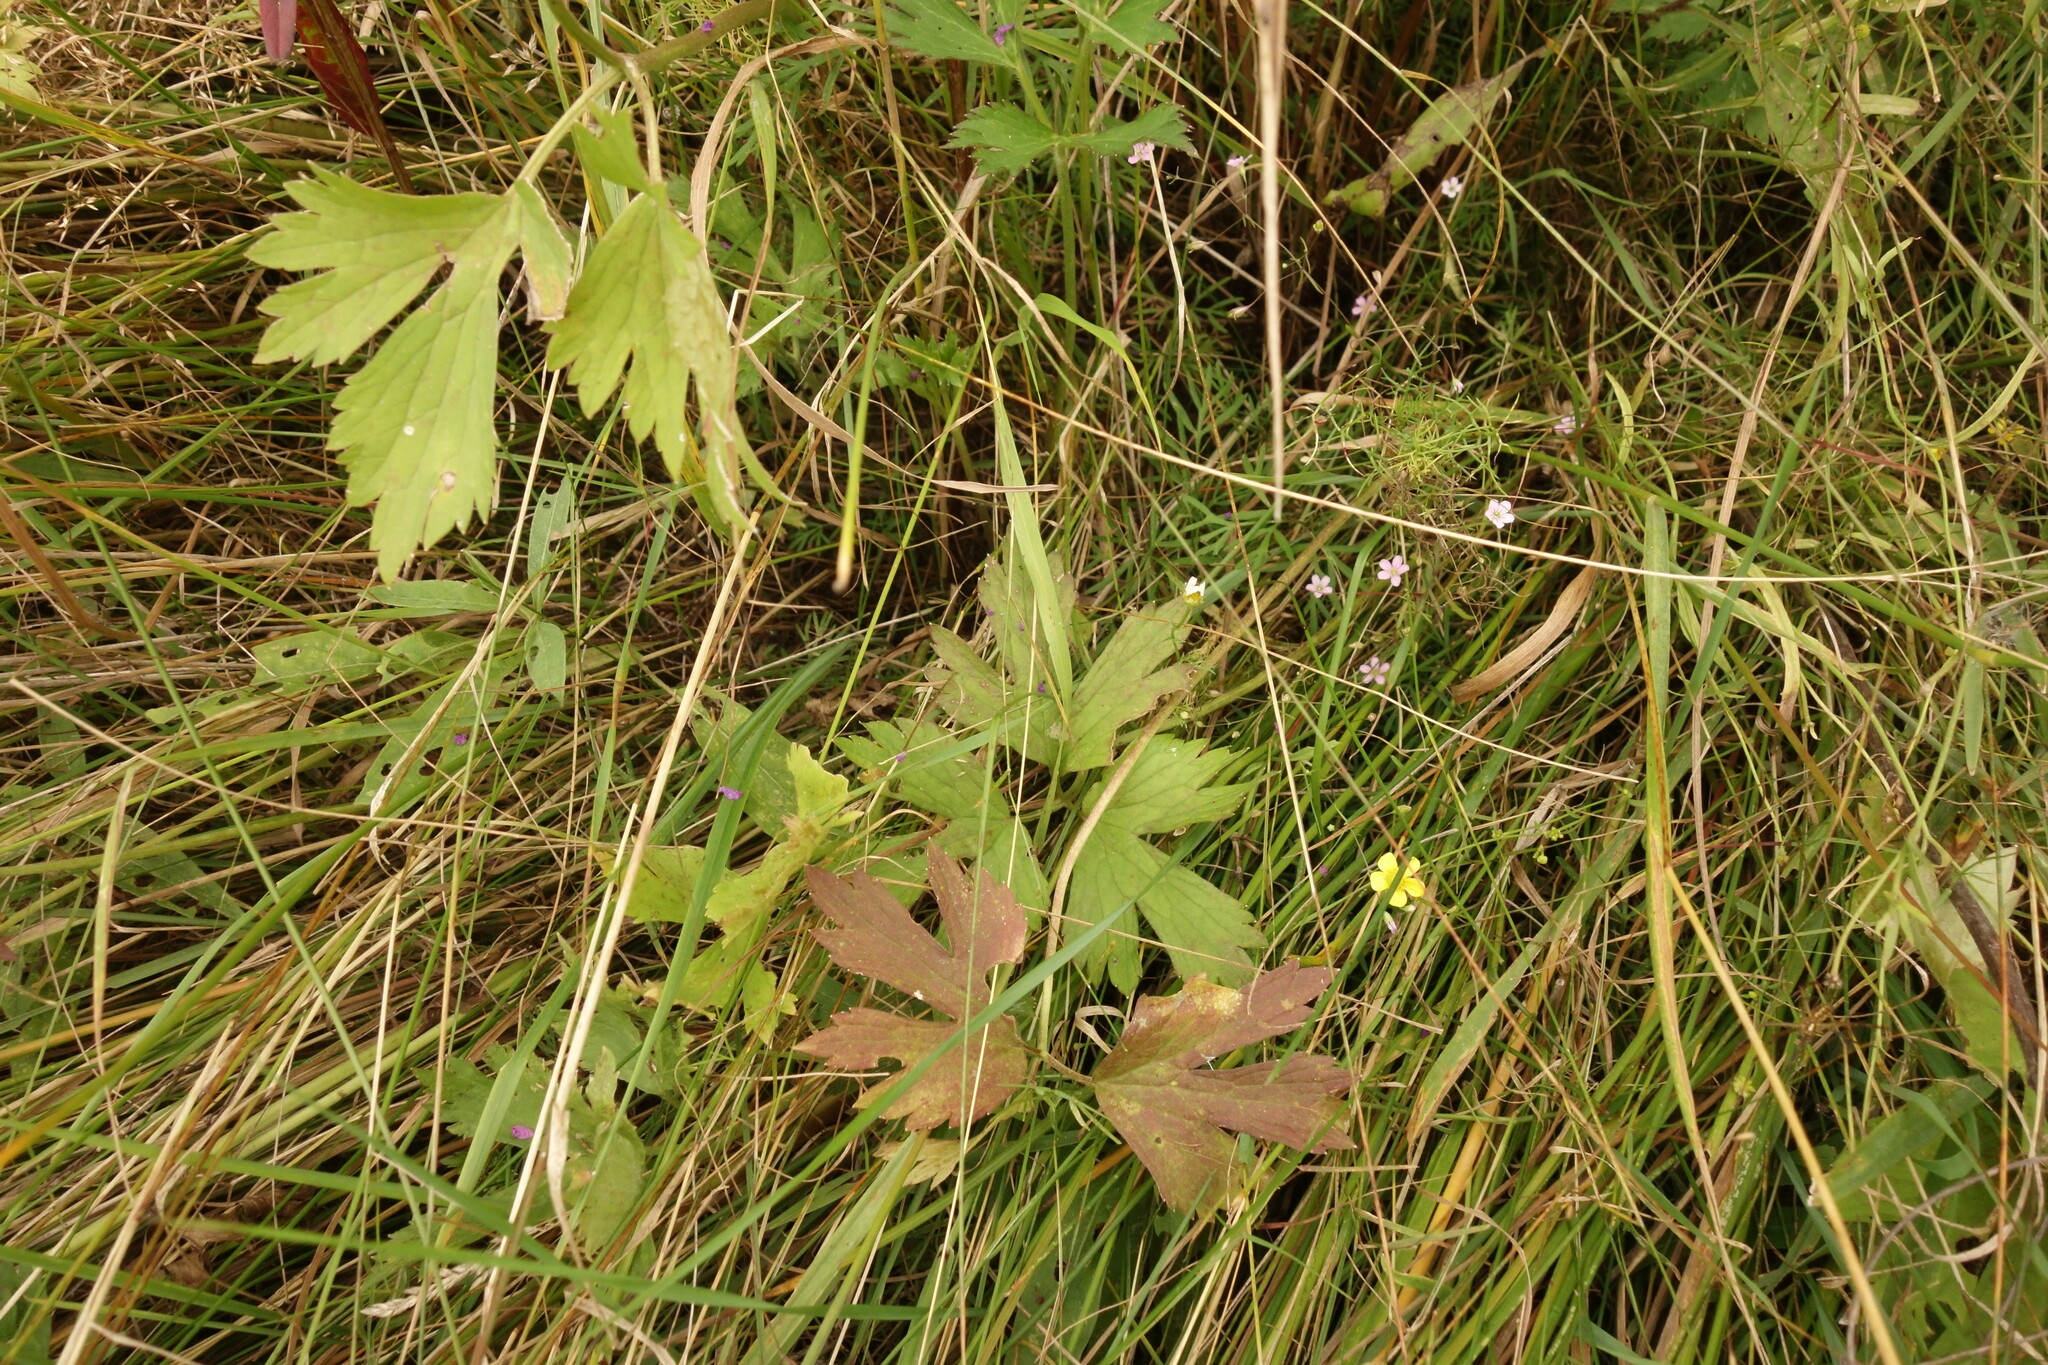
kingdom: Plantae
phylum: Tracheophyta
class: Magnoliopsida
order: Ranunculales
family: Ranunculaceae
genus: Ranunculus
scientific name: Ranunculus repens
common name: Creeping buttercup
